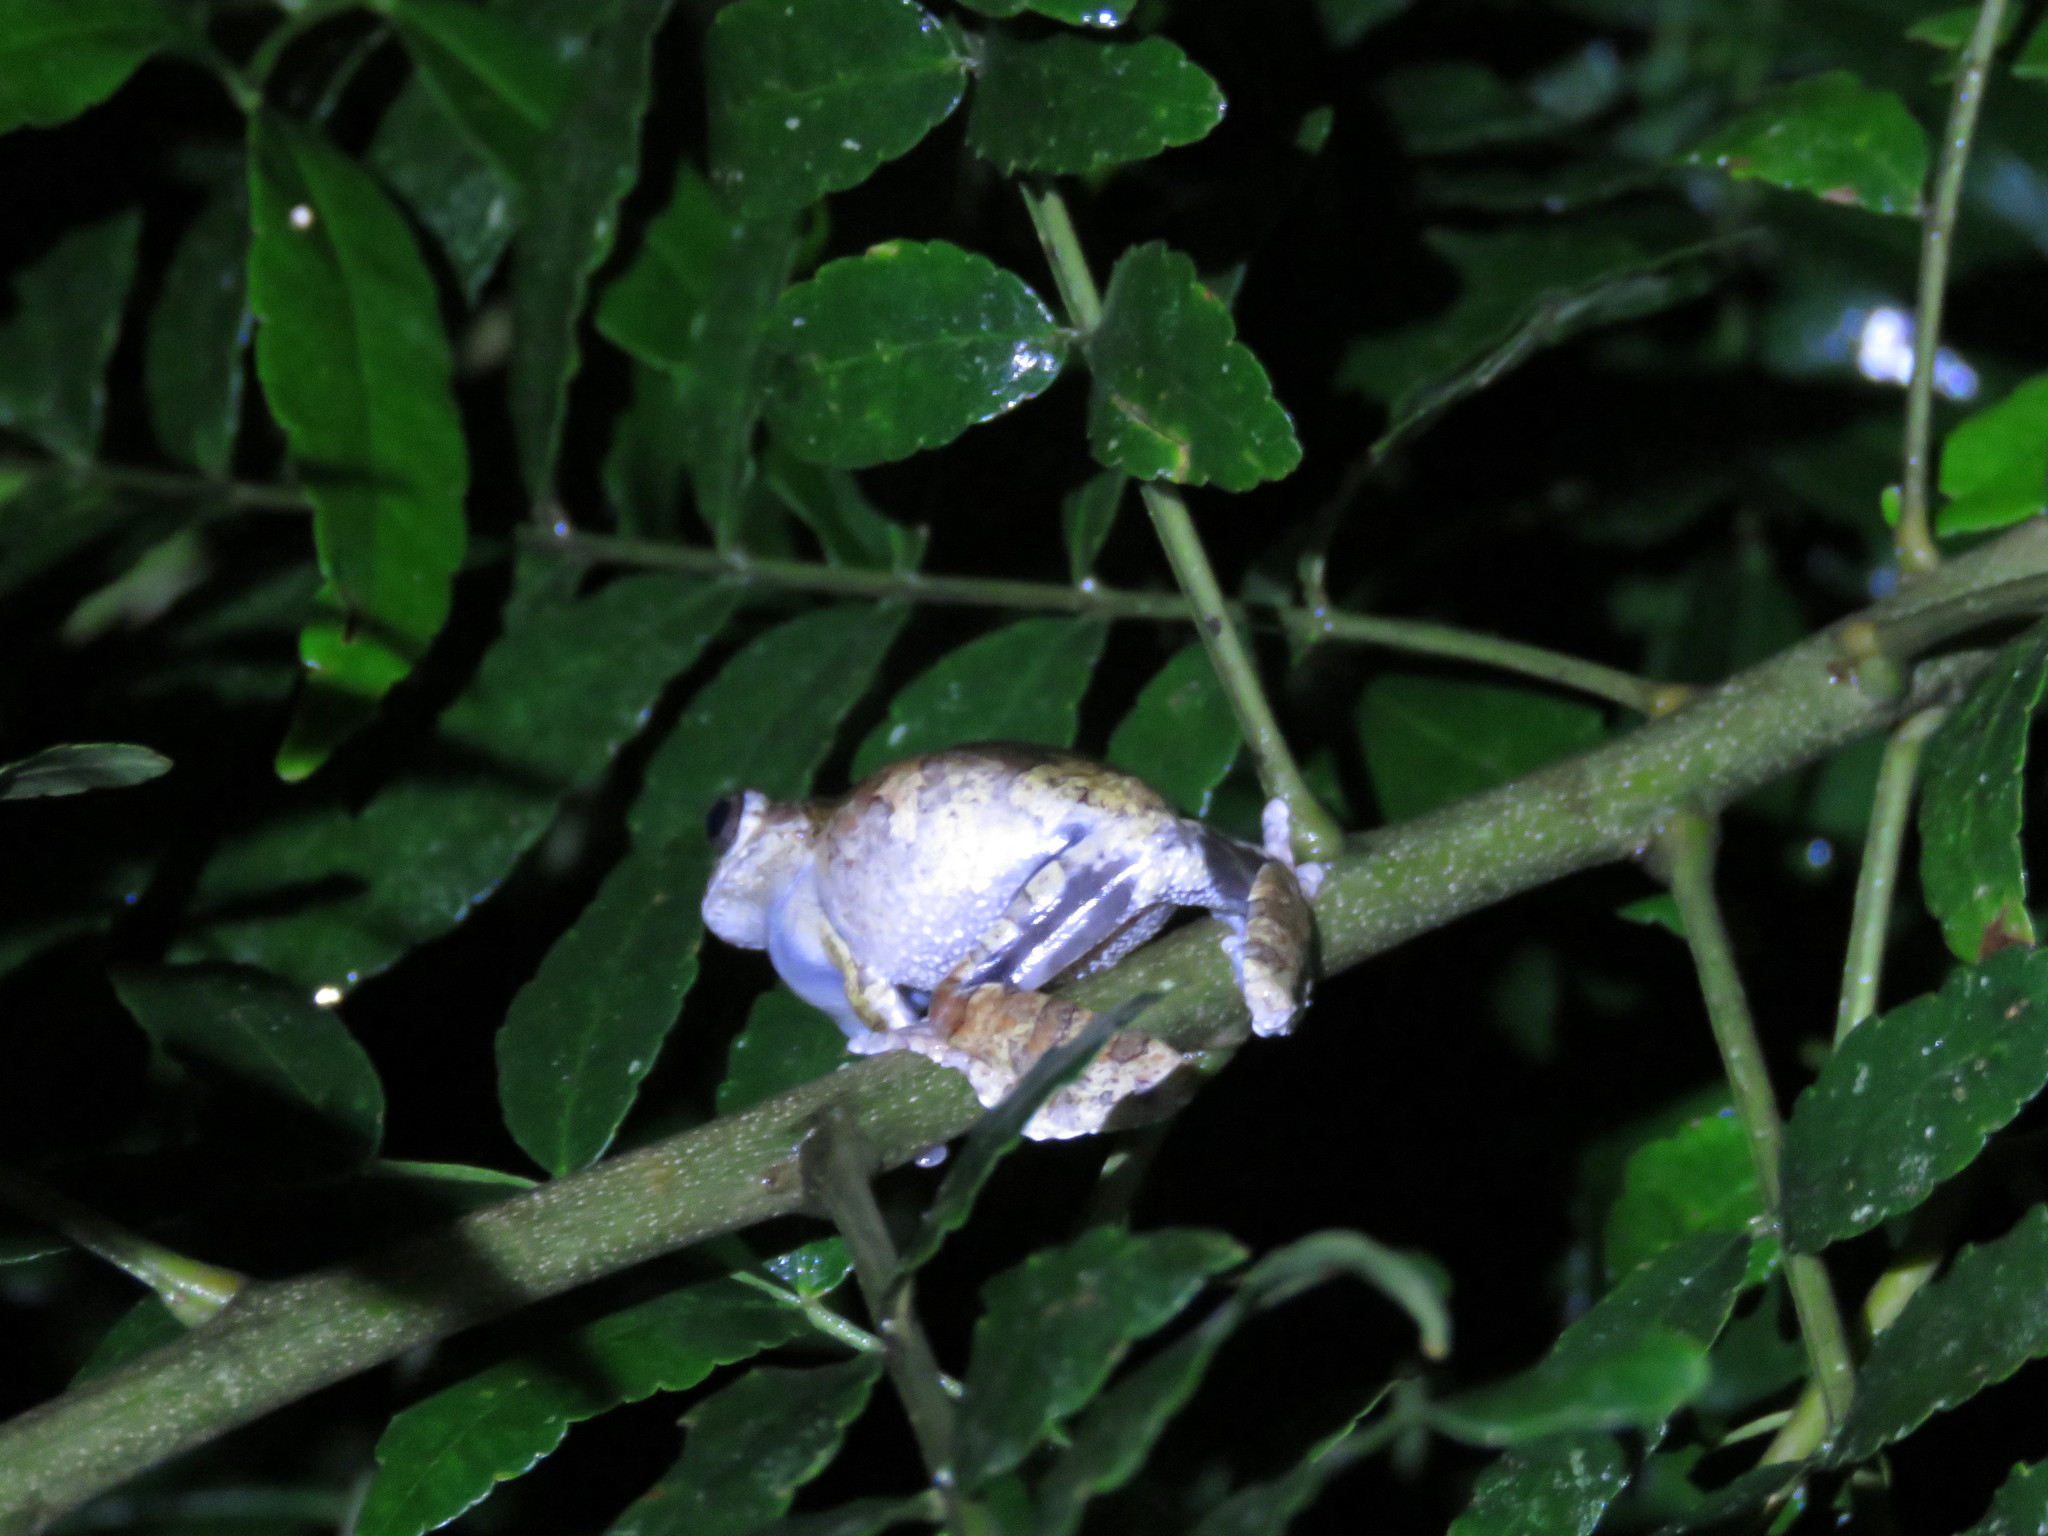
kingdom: Animalia
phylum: Chordata
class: Amphibia
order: Anura
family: Hylidae
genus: Dendropsophus
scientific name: Dendropsophus acreanus
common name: Acre treefrog
